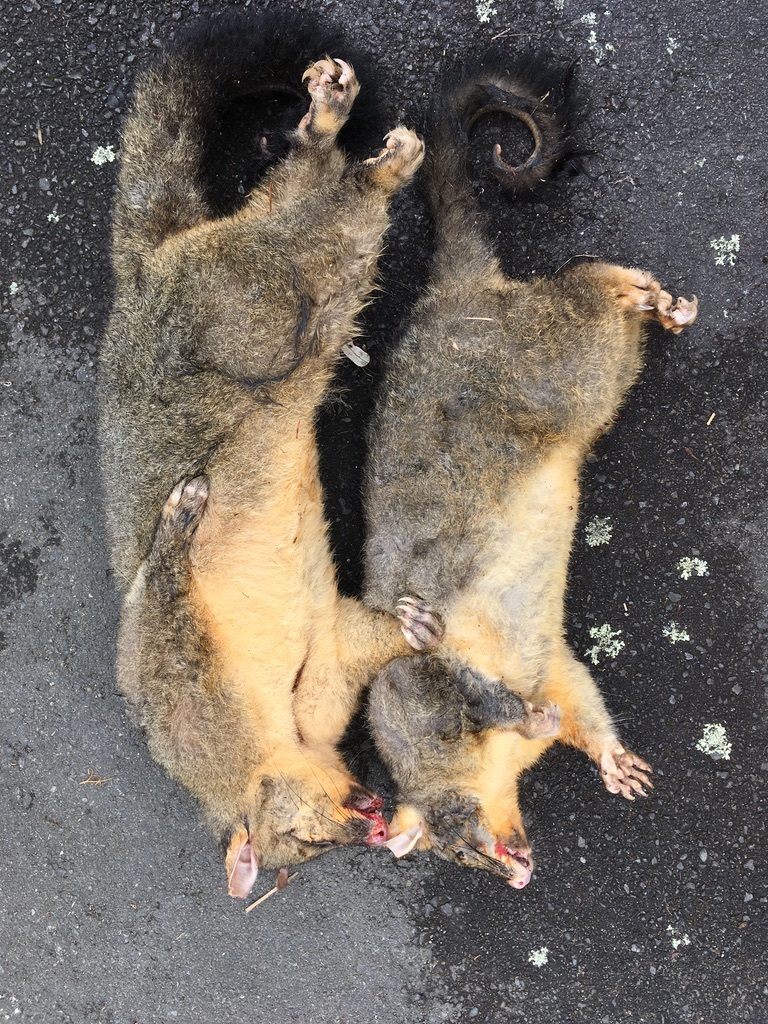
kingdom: Animalia
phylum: Chordata
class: Mammalia
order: Diprotodontia
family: Phalangeridae
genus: Trichosurus
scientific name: Trichosurus vulpecula
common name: Common brushtail
